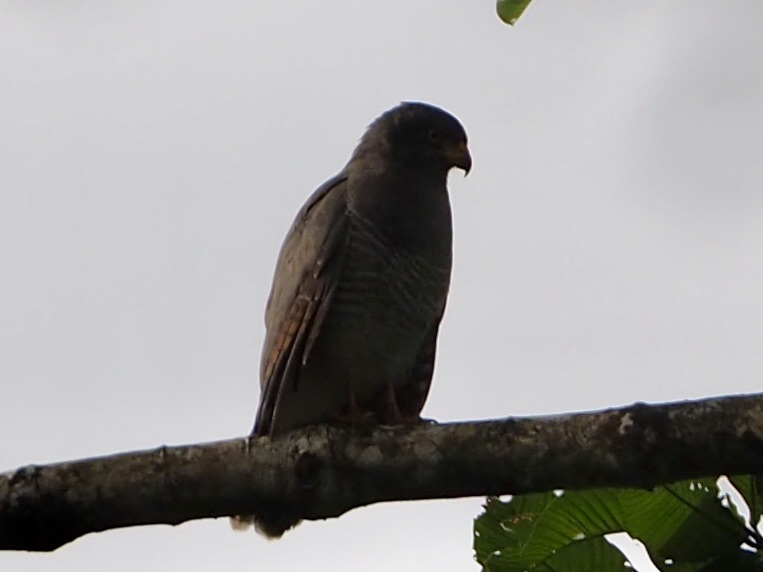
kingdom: Animalia
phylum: Chordata
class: Aves
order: Accipitriformes
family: Accipitridae
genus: Rupornis
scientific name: Rupornis magnirostris
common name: Roadside hawk
